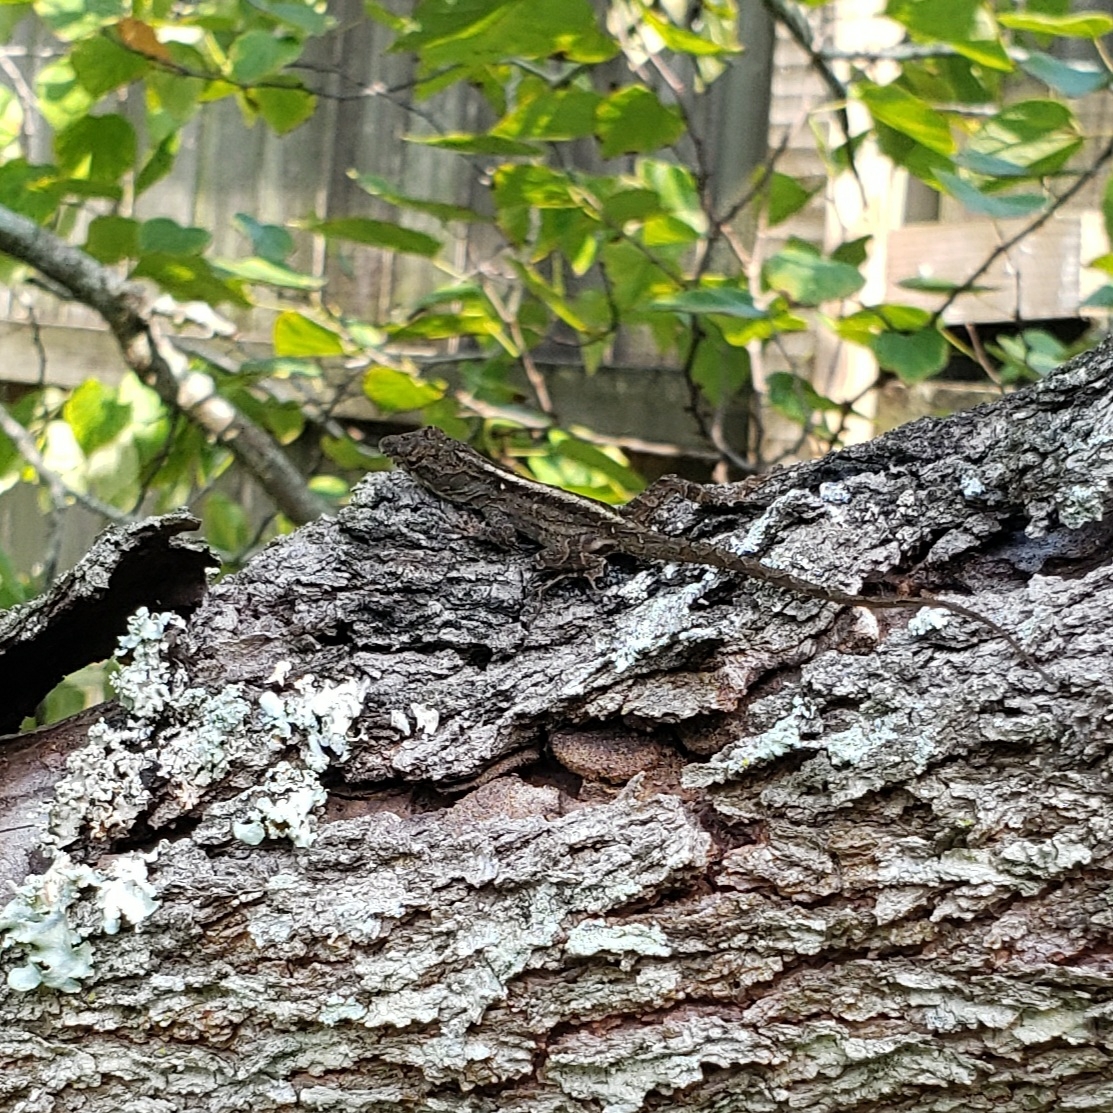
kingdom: Animalia
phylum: Chordata
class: Squamata
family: Dactyloidae
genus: Anolis
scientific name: Anolis sagrei
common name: Brown anole
